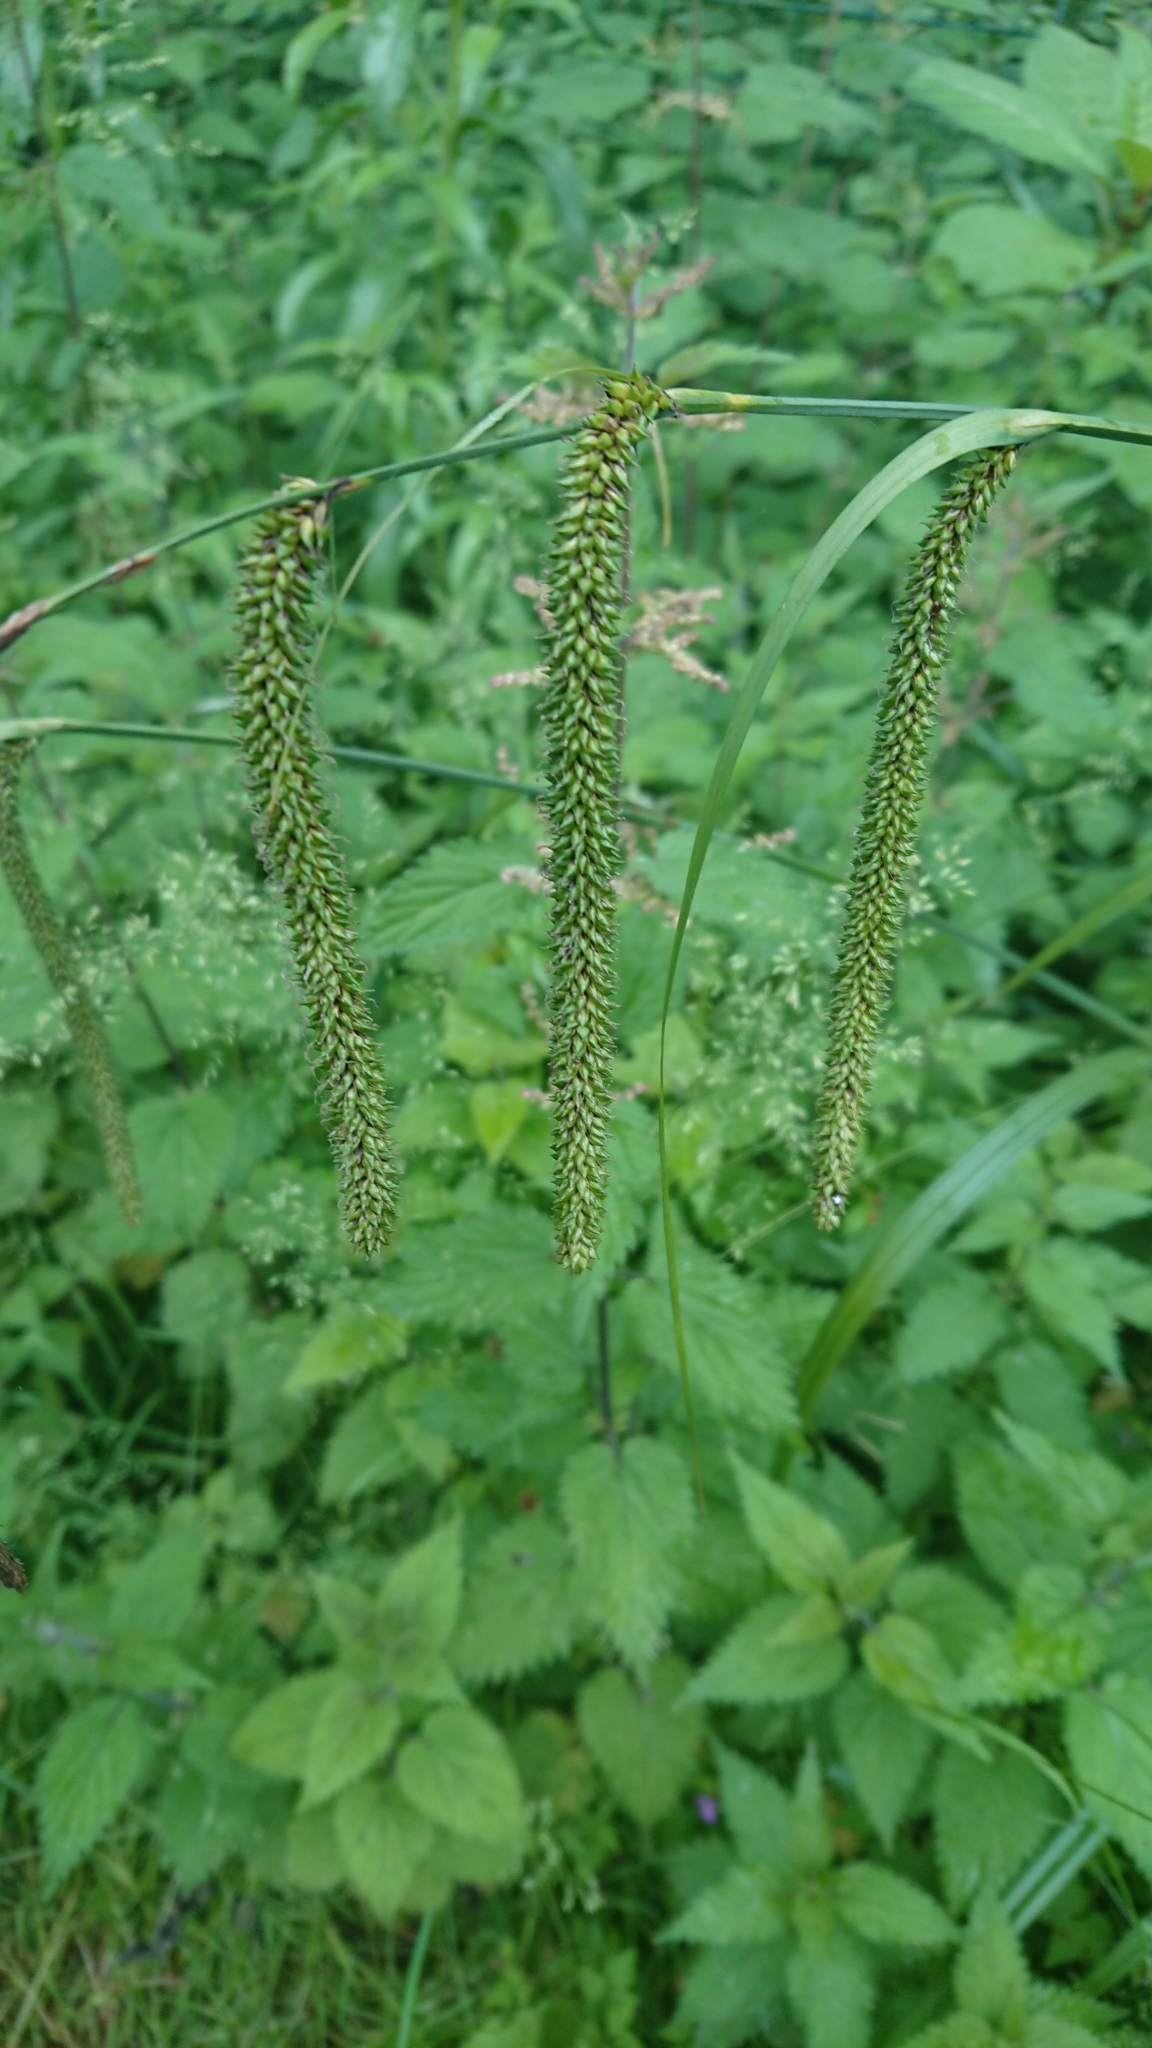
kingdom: Plantae
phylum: Tracheophyta
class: Liliopsida
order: Poales
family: Cyperaceae
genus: Carex
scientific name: Carex pendula
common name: Pendulous sedge
